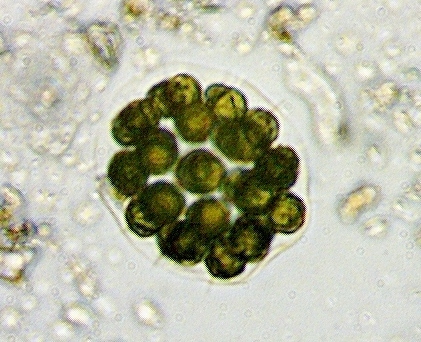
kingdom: Plantae
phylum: Chlorophyta
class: Chlorophyceae
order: Volvocales
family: Volvocaceae
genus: Eudorina
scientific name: Eudorina elegans
